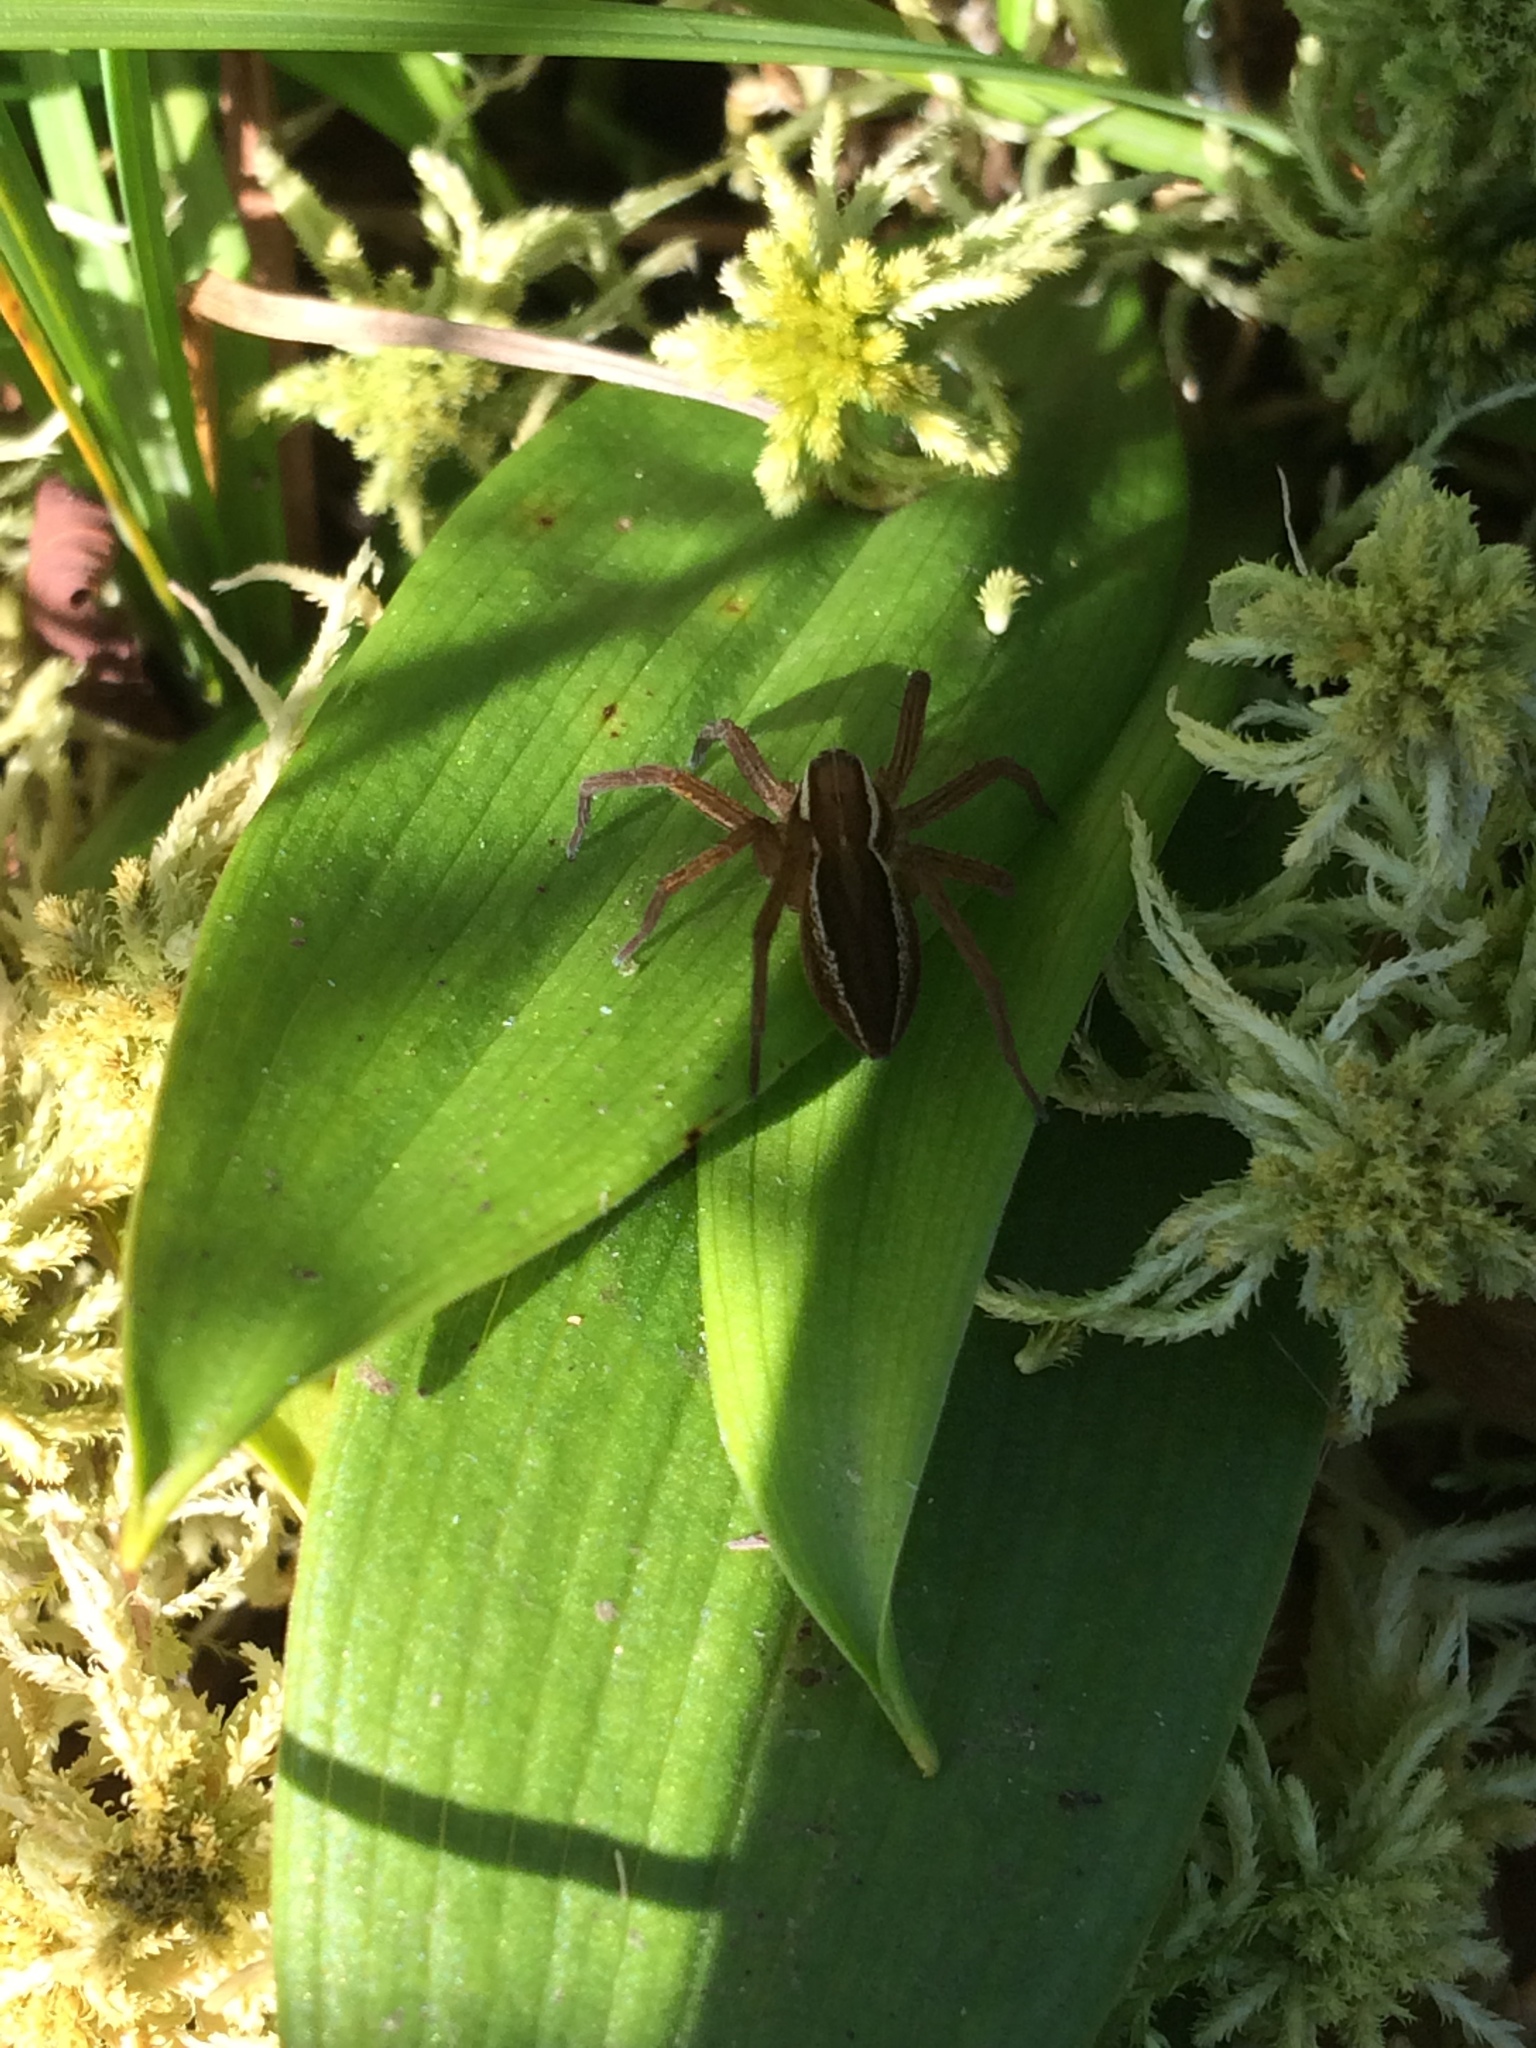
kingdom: Animalia
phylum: Arthropoda
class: Arachnida
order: Araneae
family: Pisauridae
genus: Dolomedes
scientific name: Dolomedes striatus
